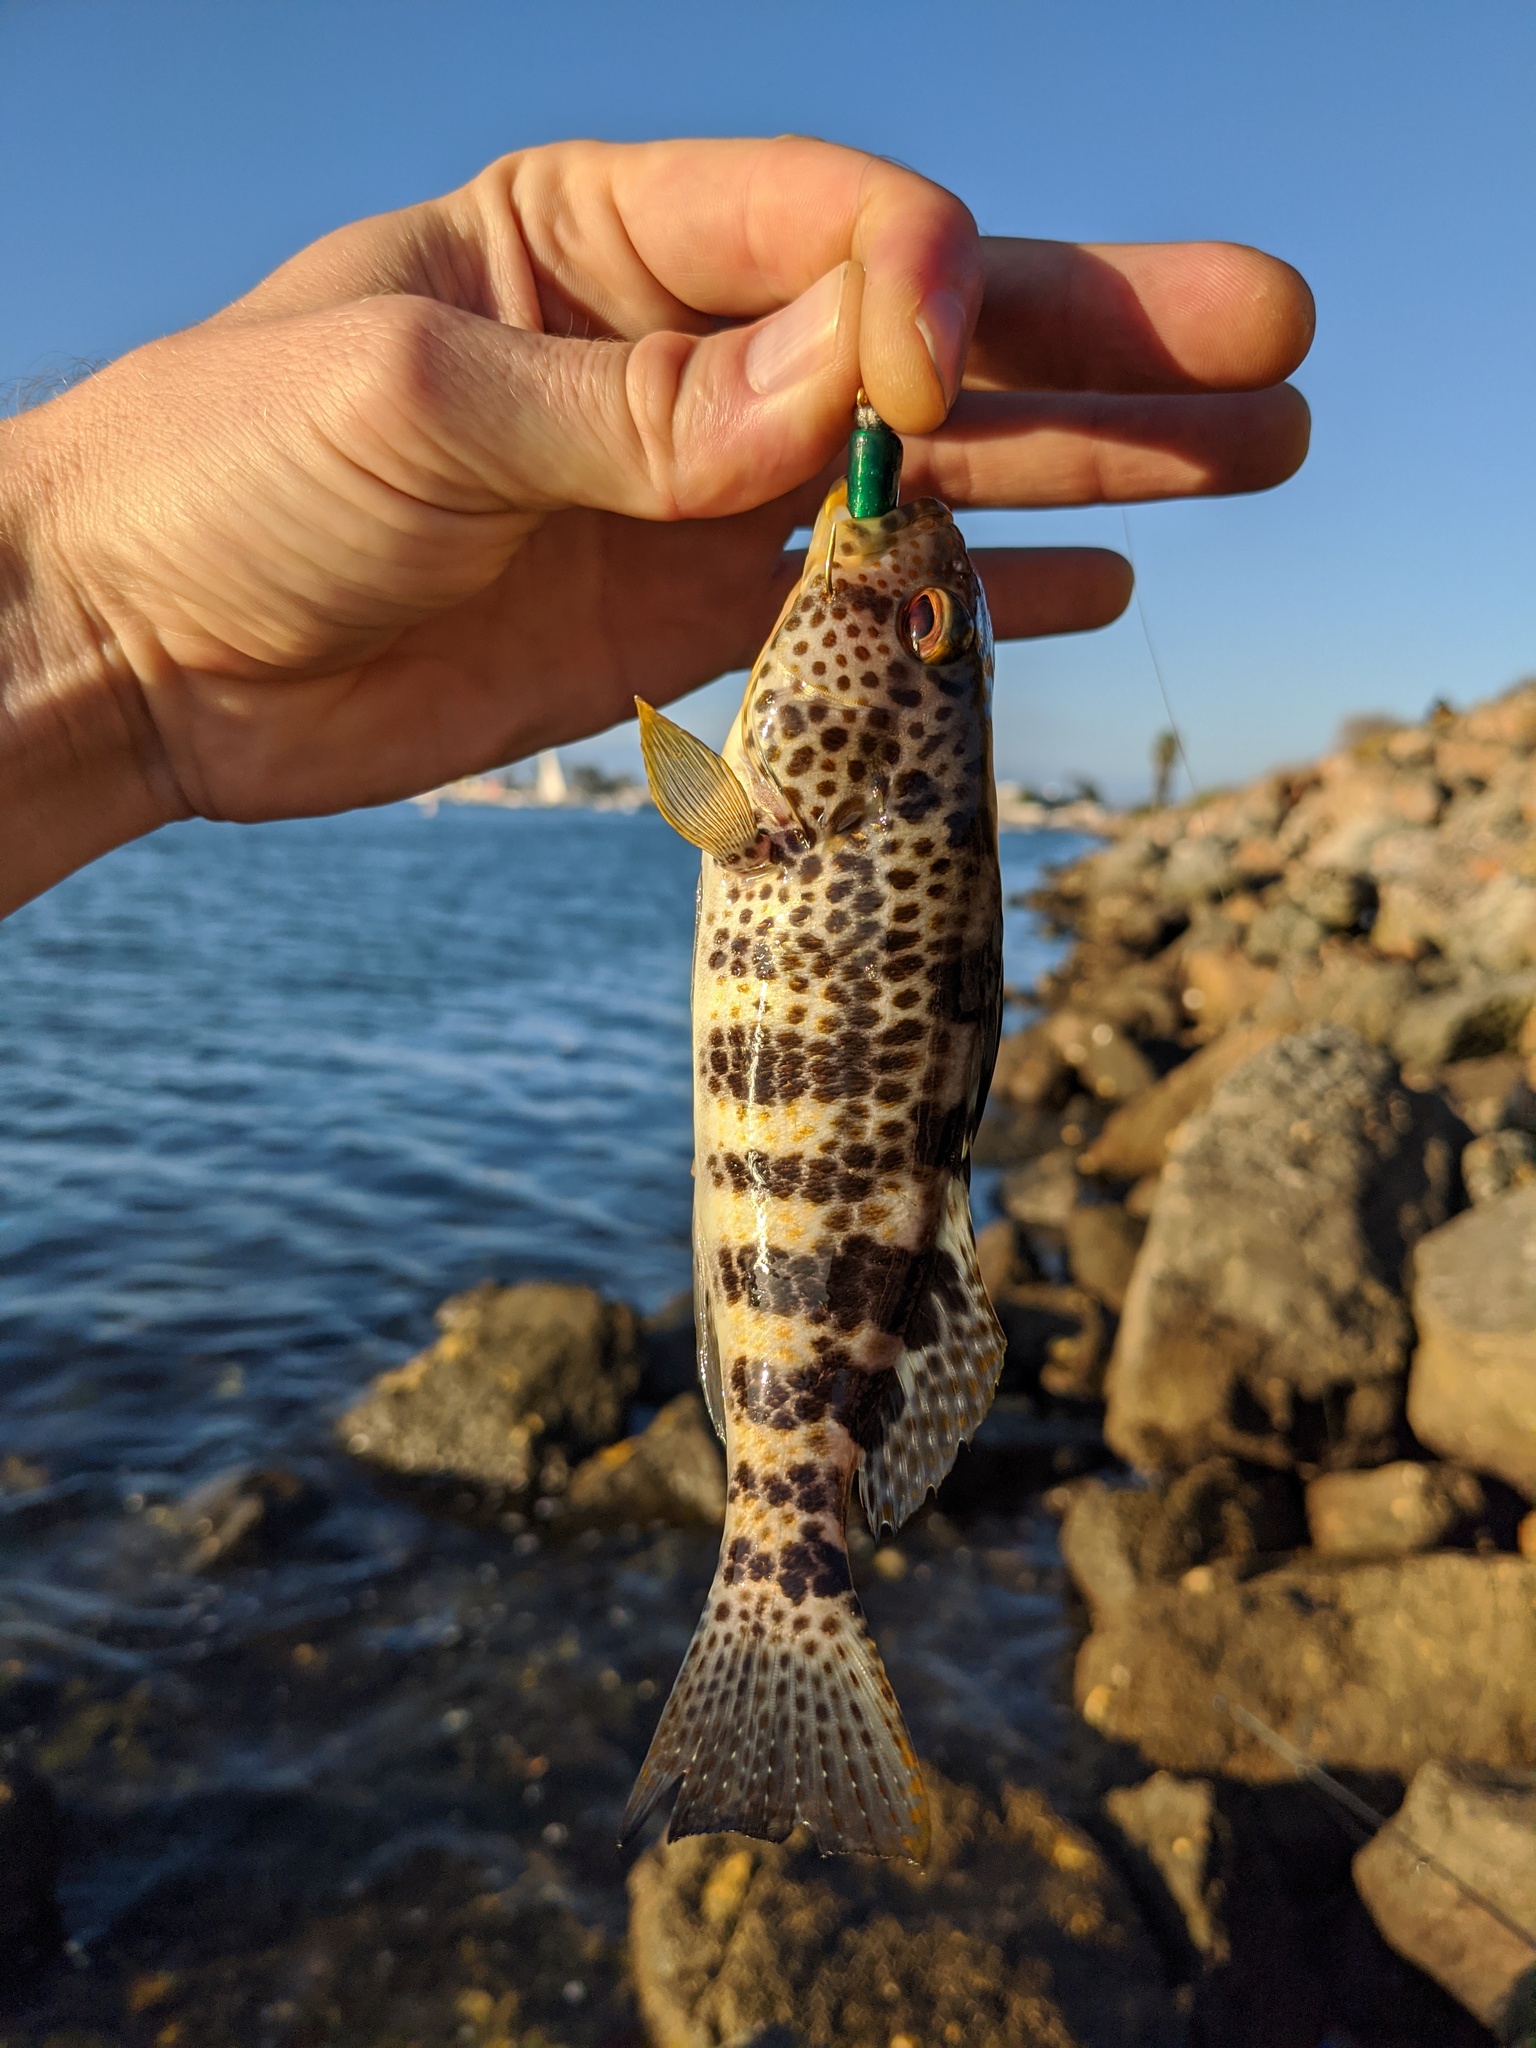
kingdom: Animalia
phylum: Chordata
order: Perciformes
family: Serranidae
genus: Paralabrax
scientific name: Paralabrax maculatofasciatus
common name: Spotted sand bass
